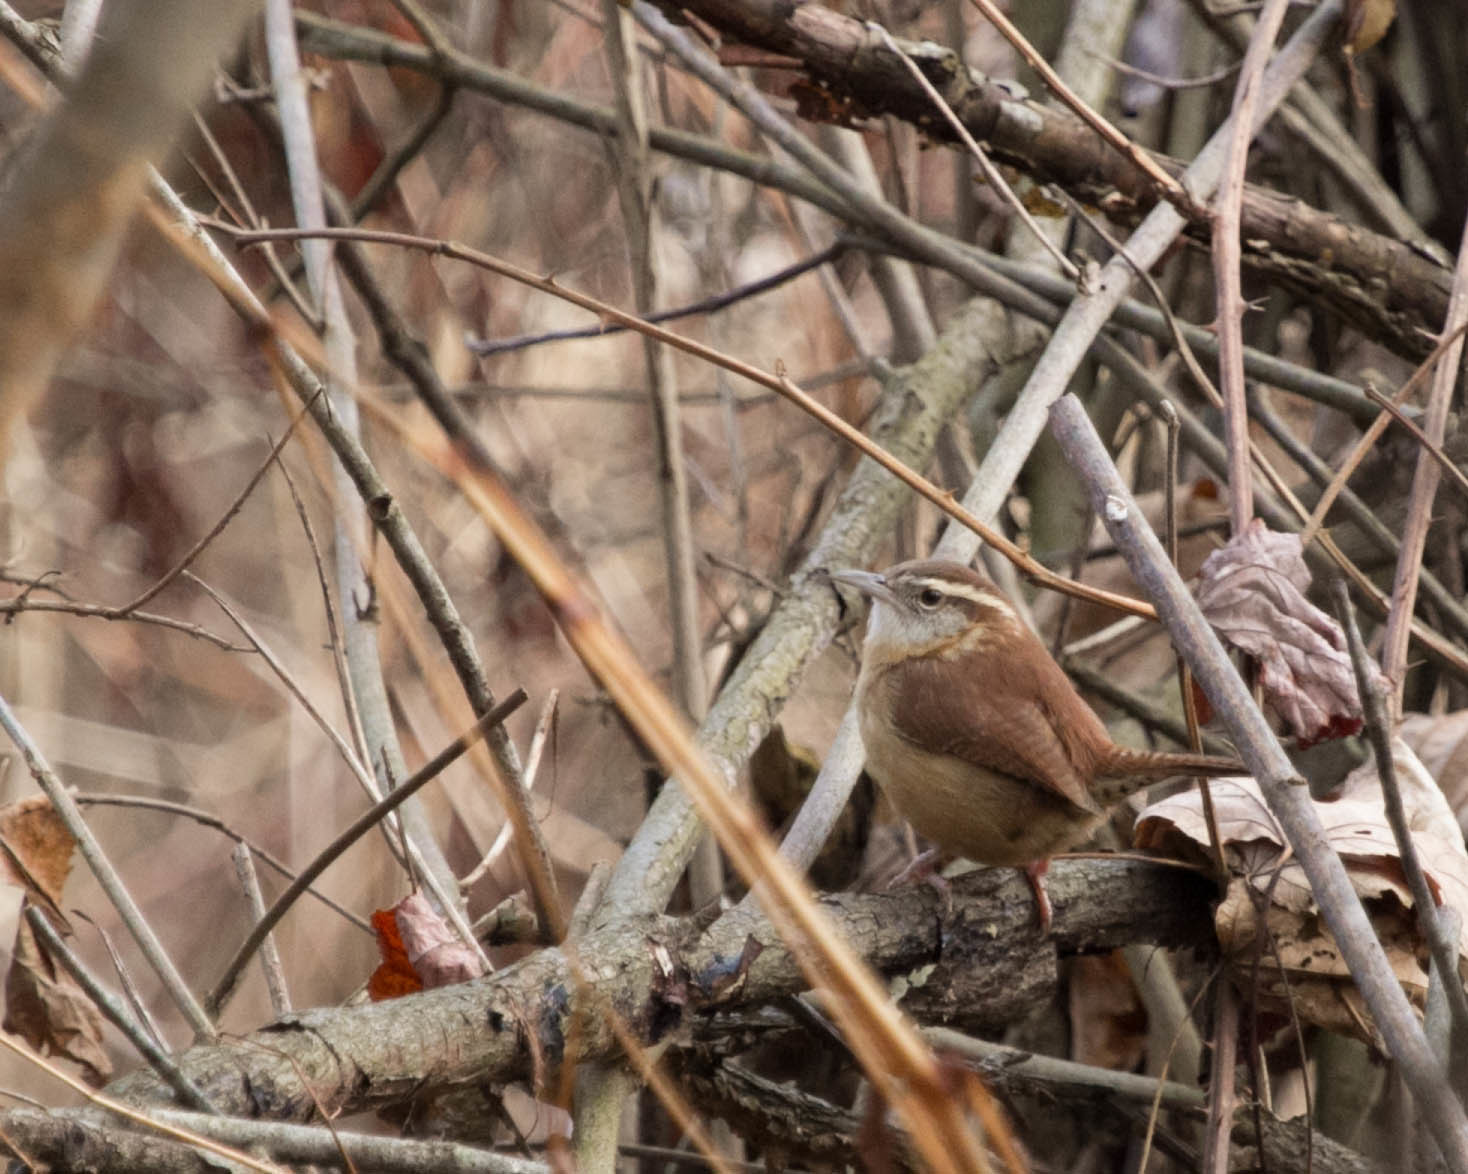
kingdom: Animalia
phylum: Chordata
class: Aves
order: Passeriformes
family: Troglodytidae
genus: Thryothorus
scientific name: Thryothorus ludovicianus
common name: Carolina wren
